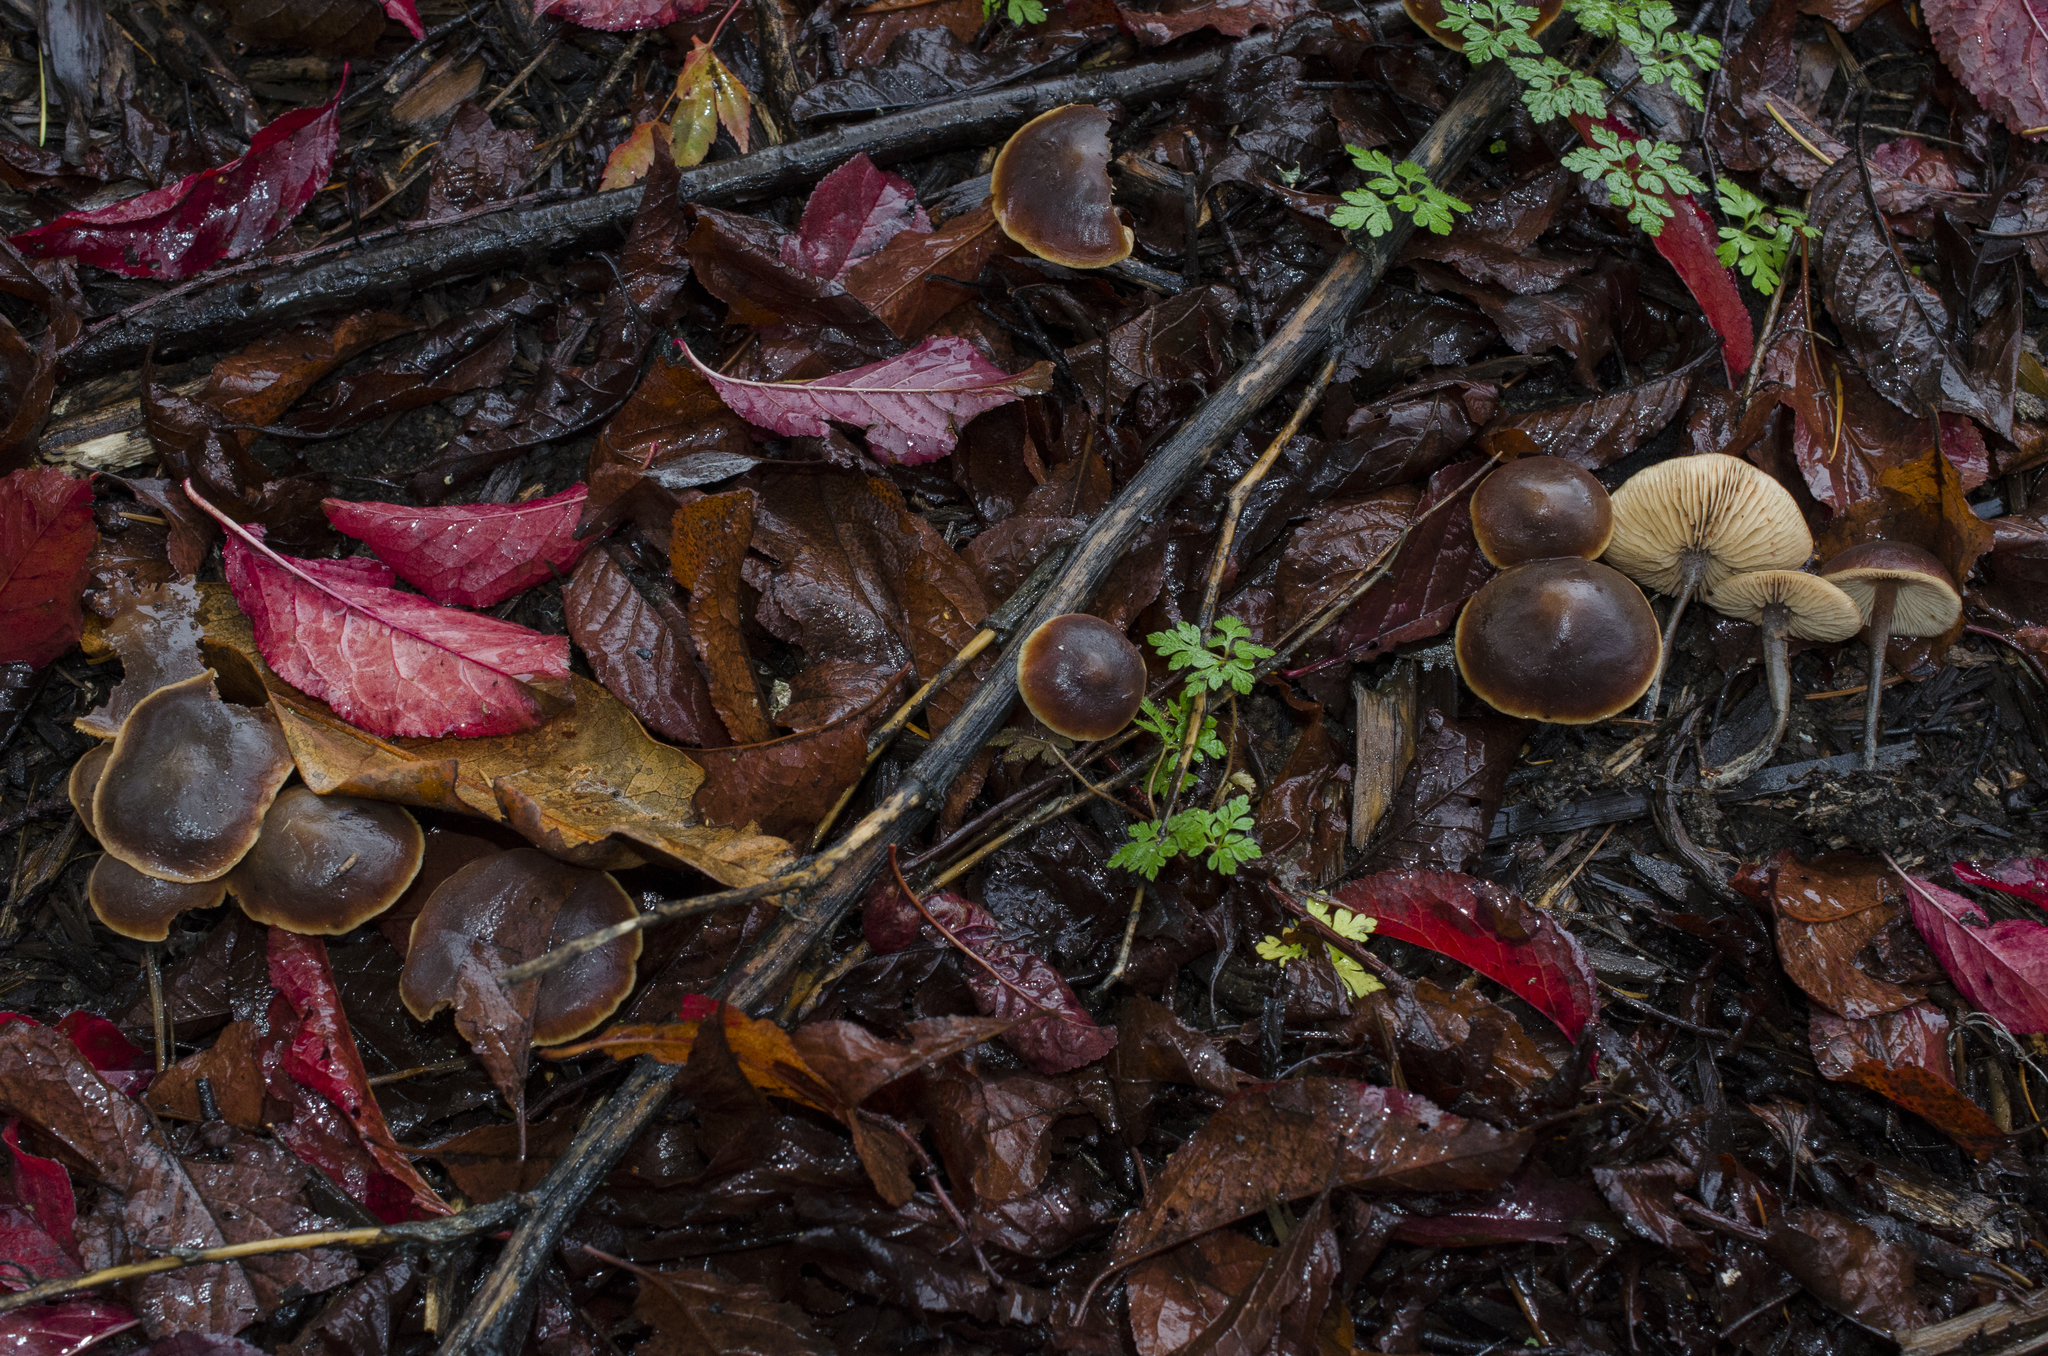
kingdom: Fungi
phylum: Basidiomycota
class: Agaricomycetes
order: Agaricales
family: Macrocystidiaceae
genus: Macrocystidia
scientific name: Macrocystidia cucumis
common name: Cucumber cap
